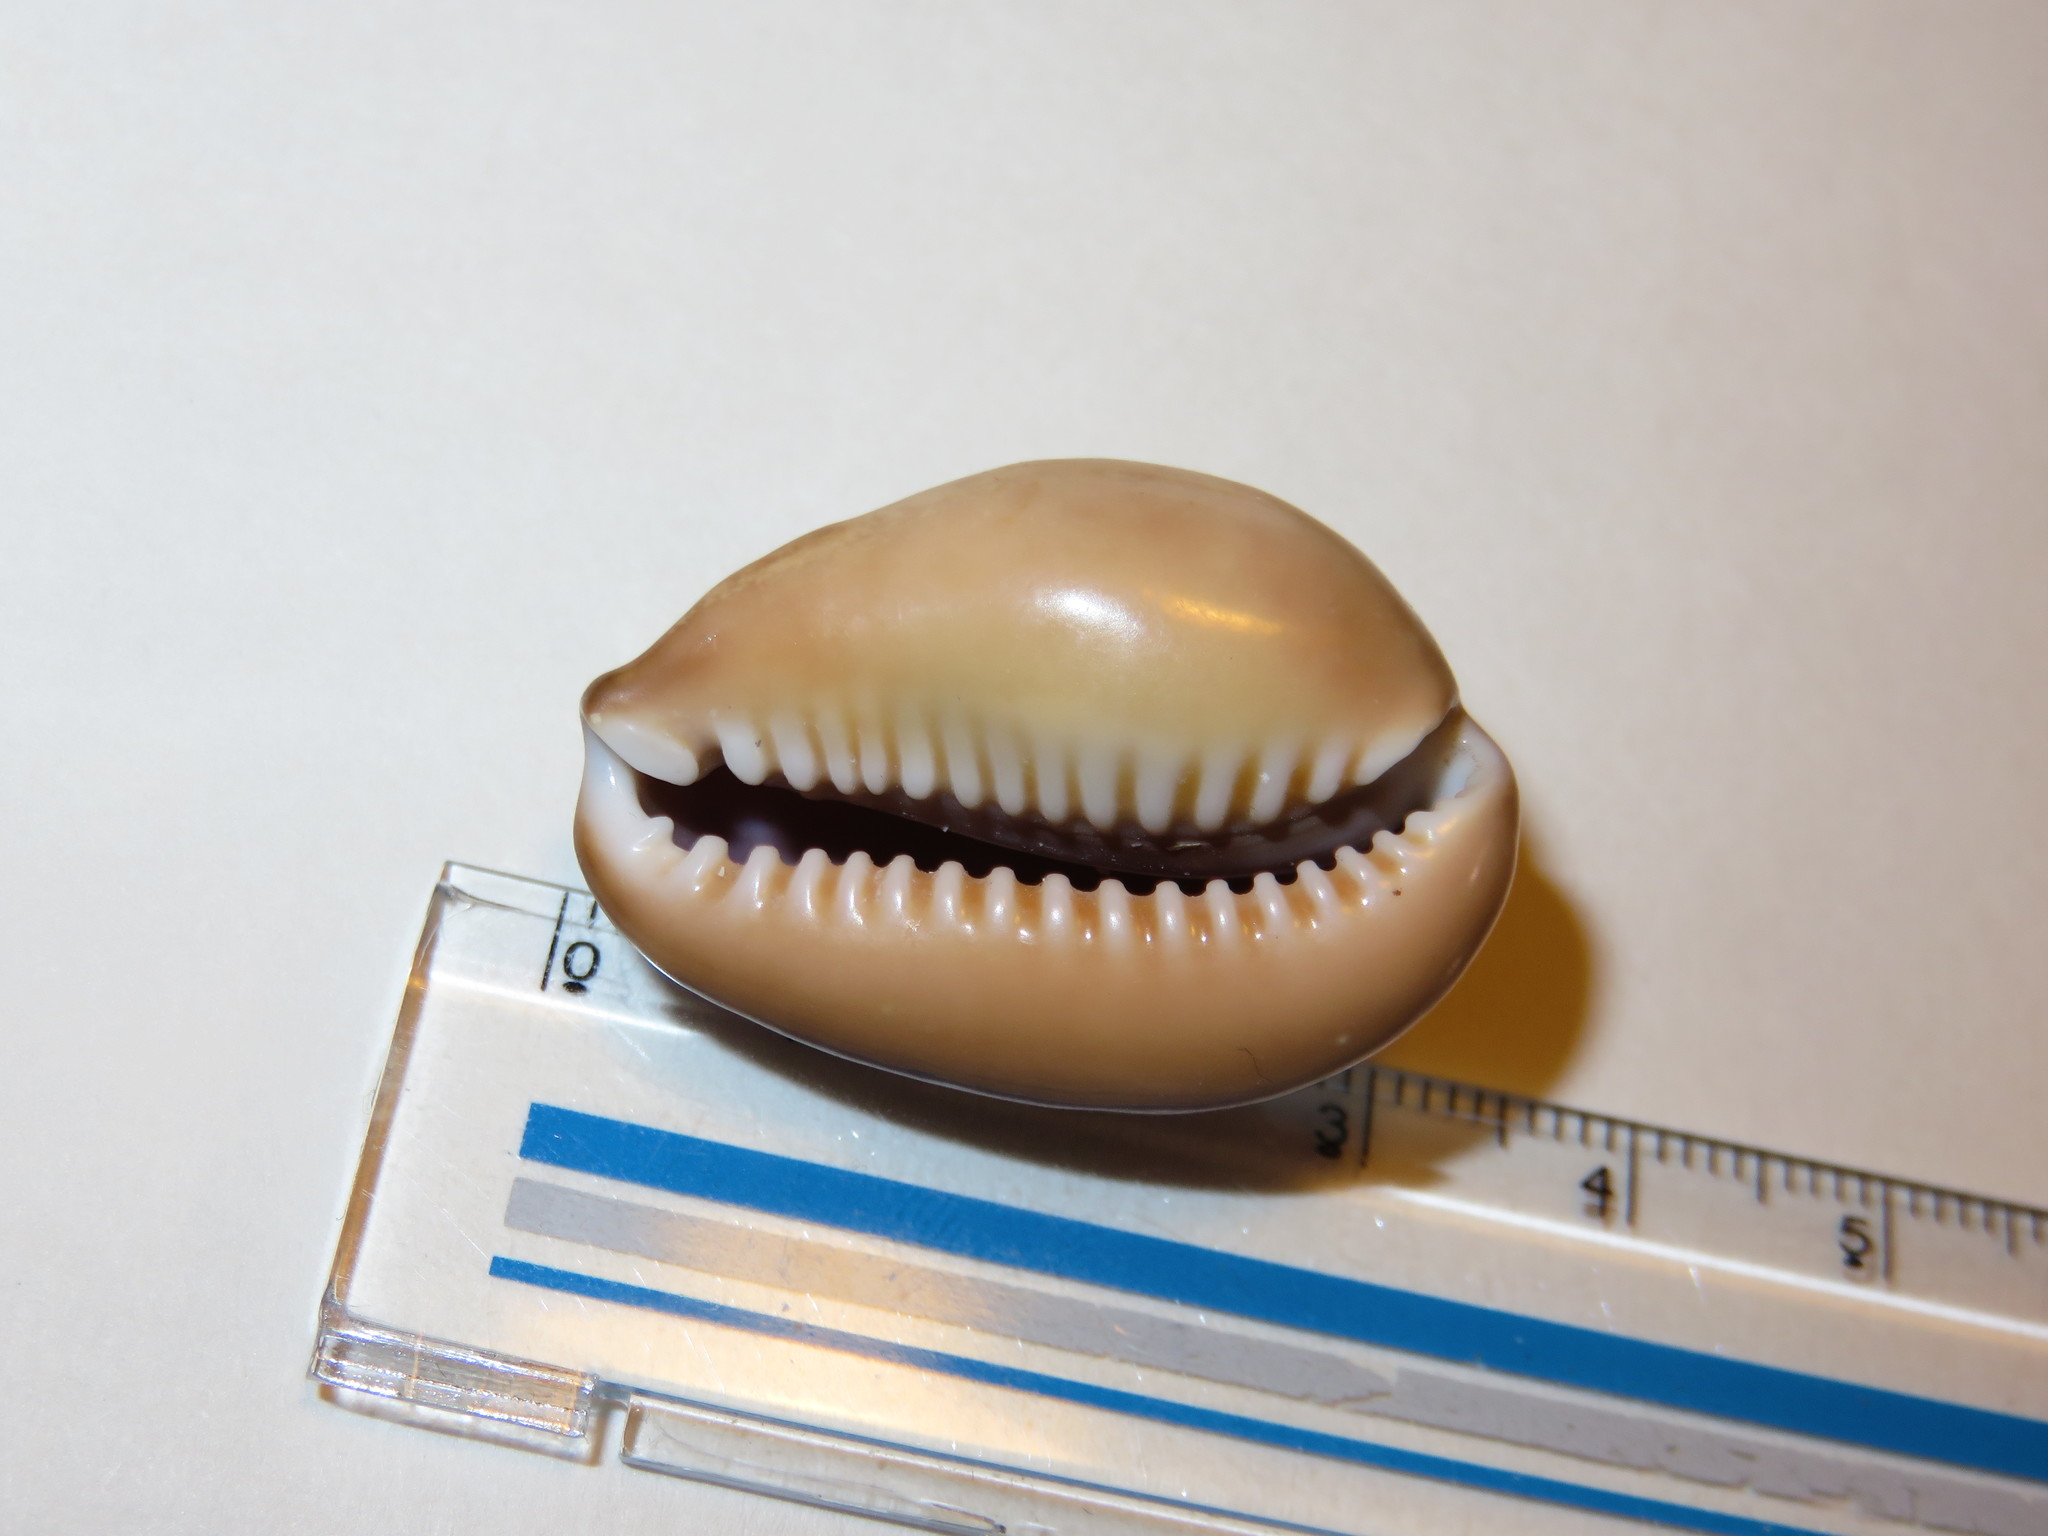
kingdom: Animalia
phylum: Mollusca
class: Gastropoda
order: Littorinimorpha
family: Cypraeidae
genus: Monetaria
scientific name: Monetaria caputserpentis
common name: Serpent's head cowrie
